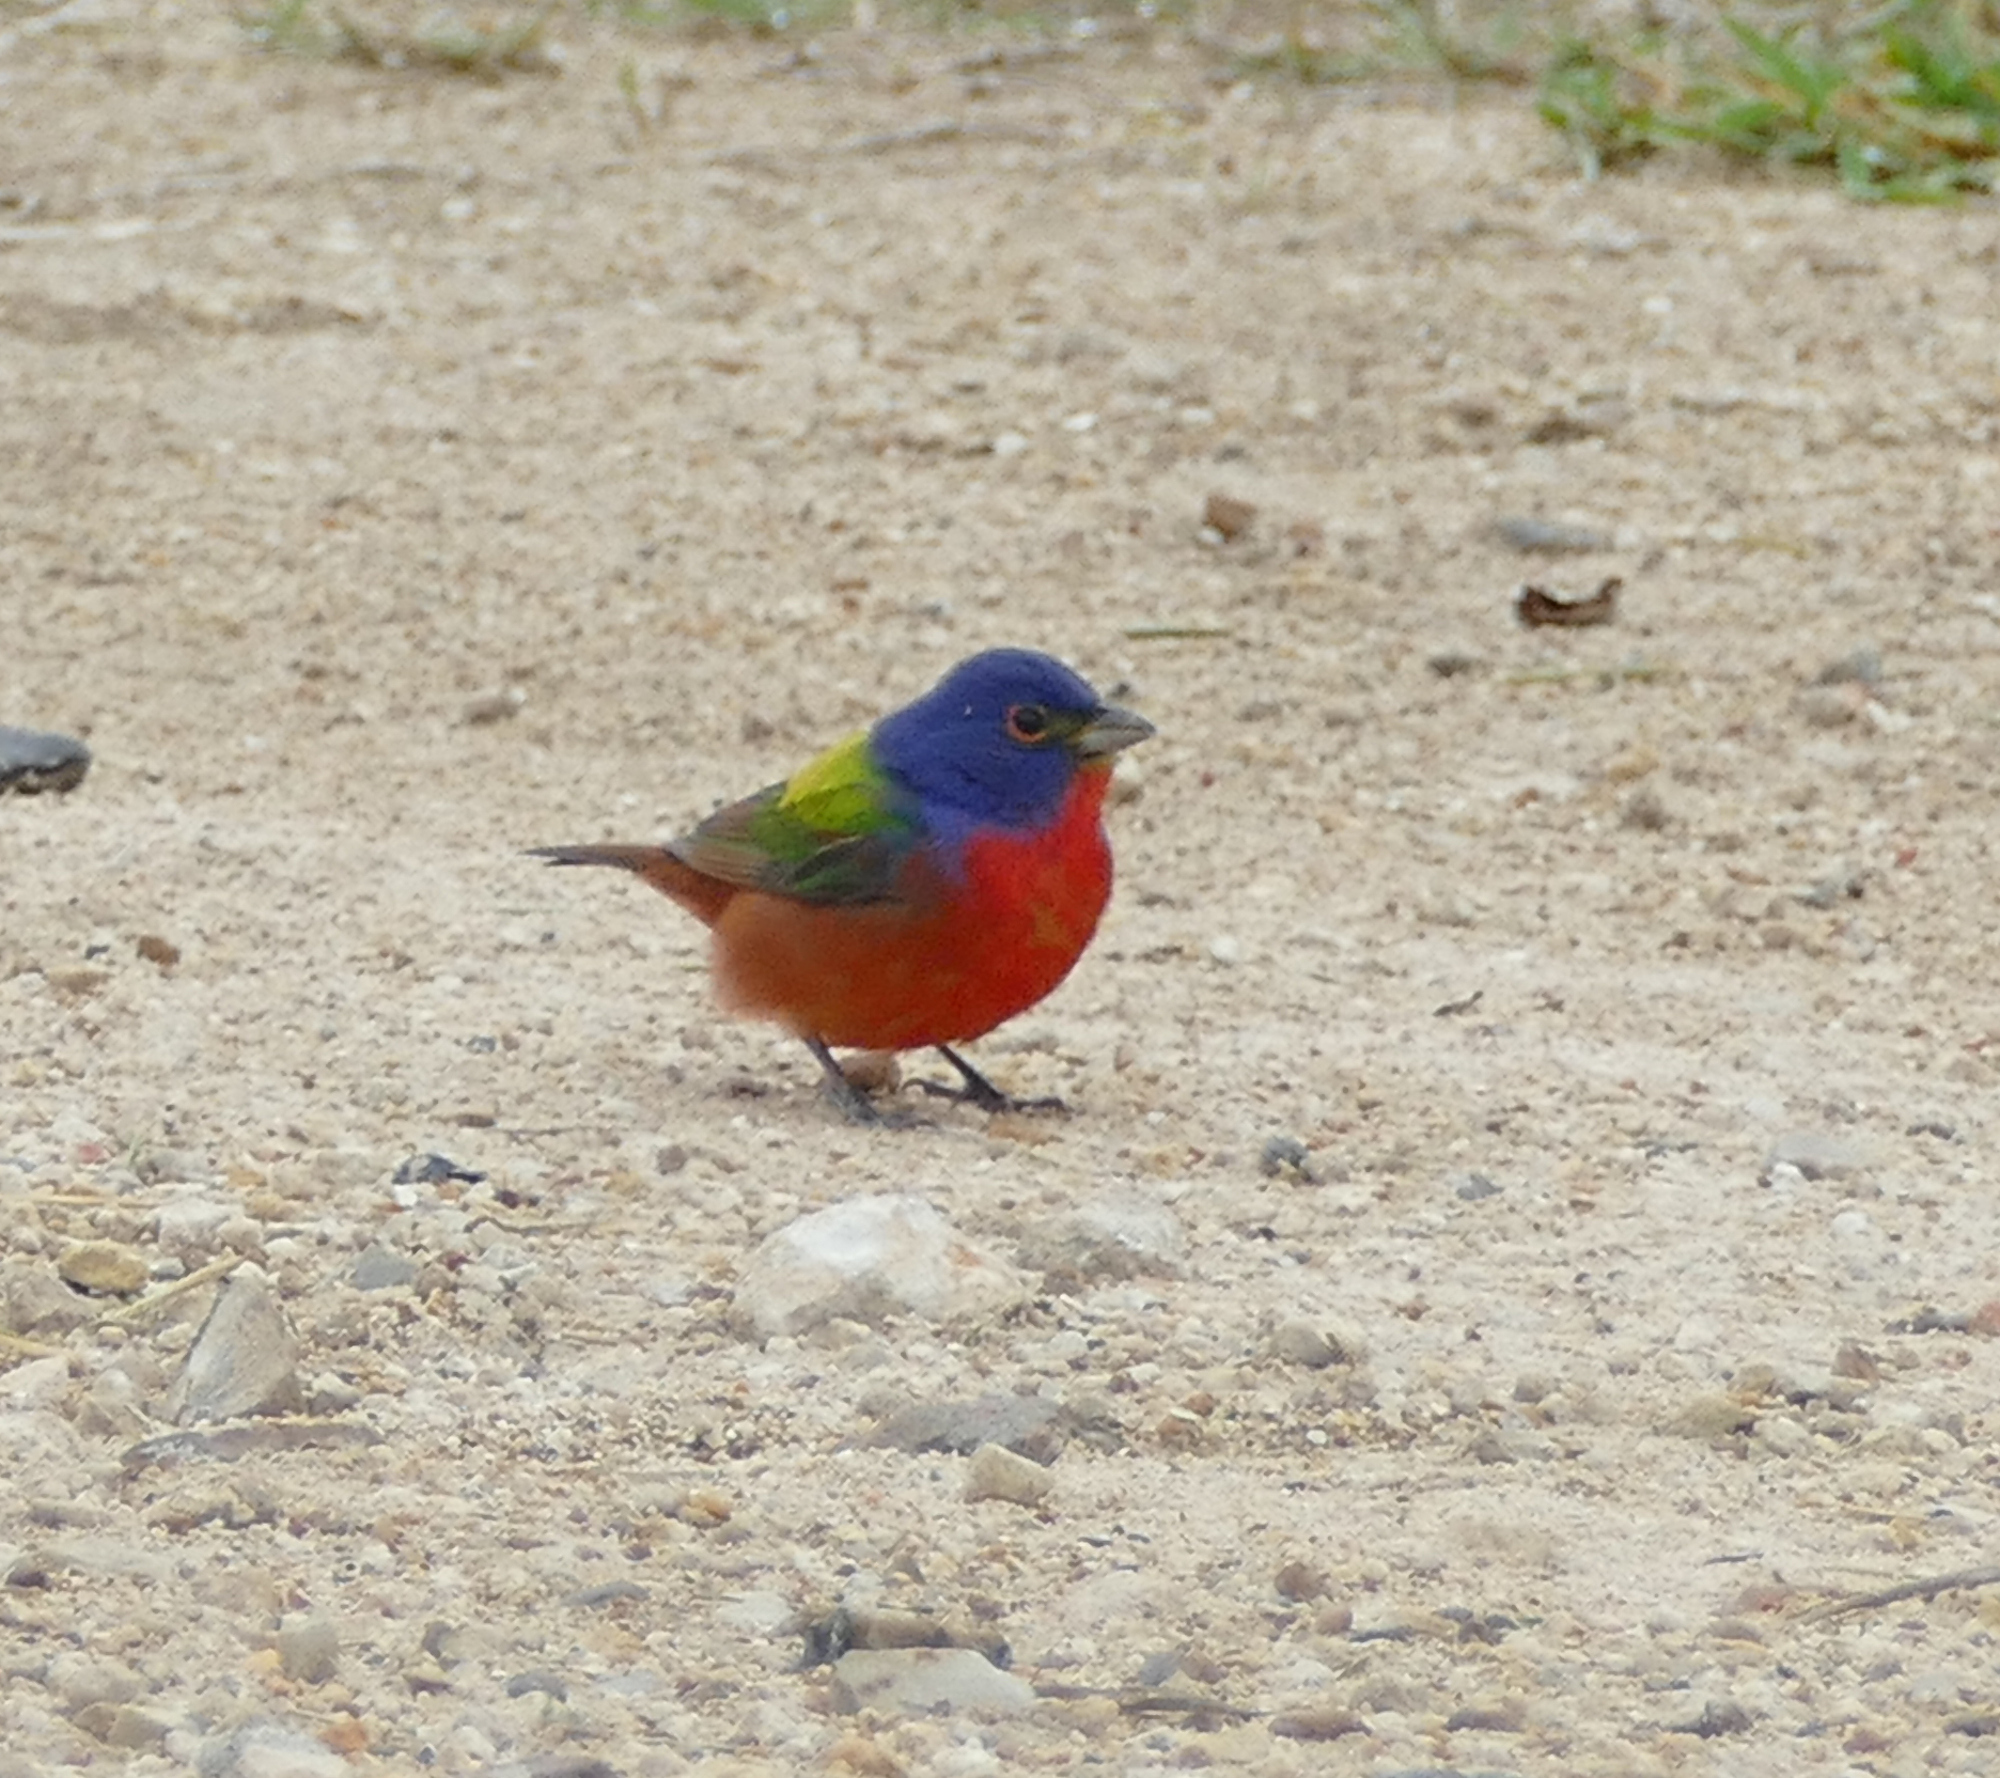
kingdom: Animalia
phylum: Chordata
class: Aves
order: Passeriformes
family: Cardinalidae
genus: Passerina
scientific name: Passerina ciris
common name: Painted bunting
